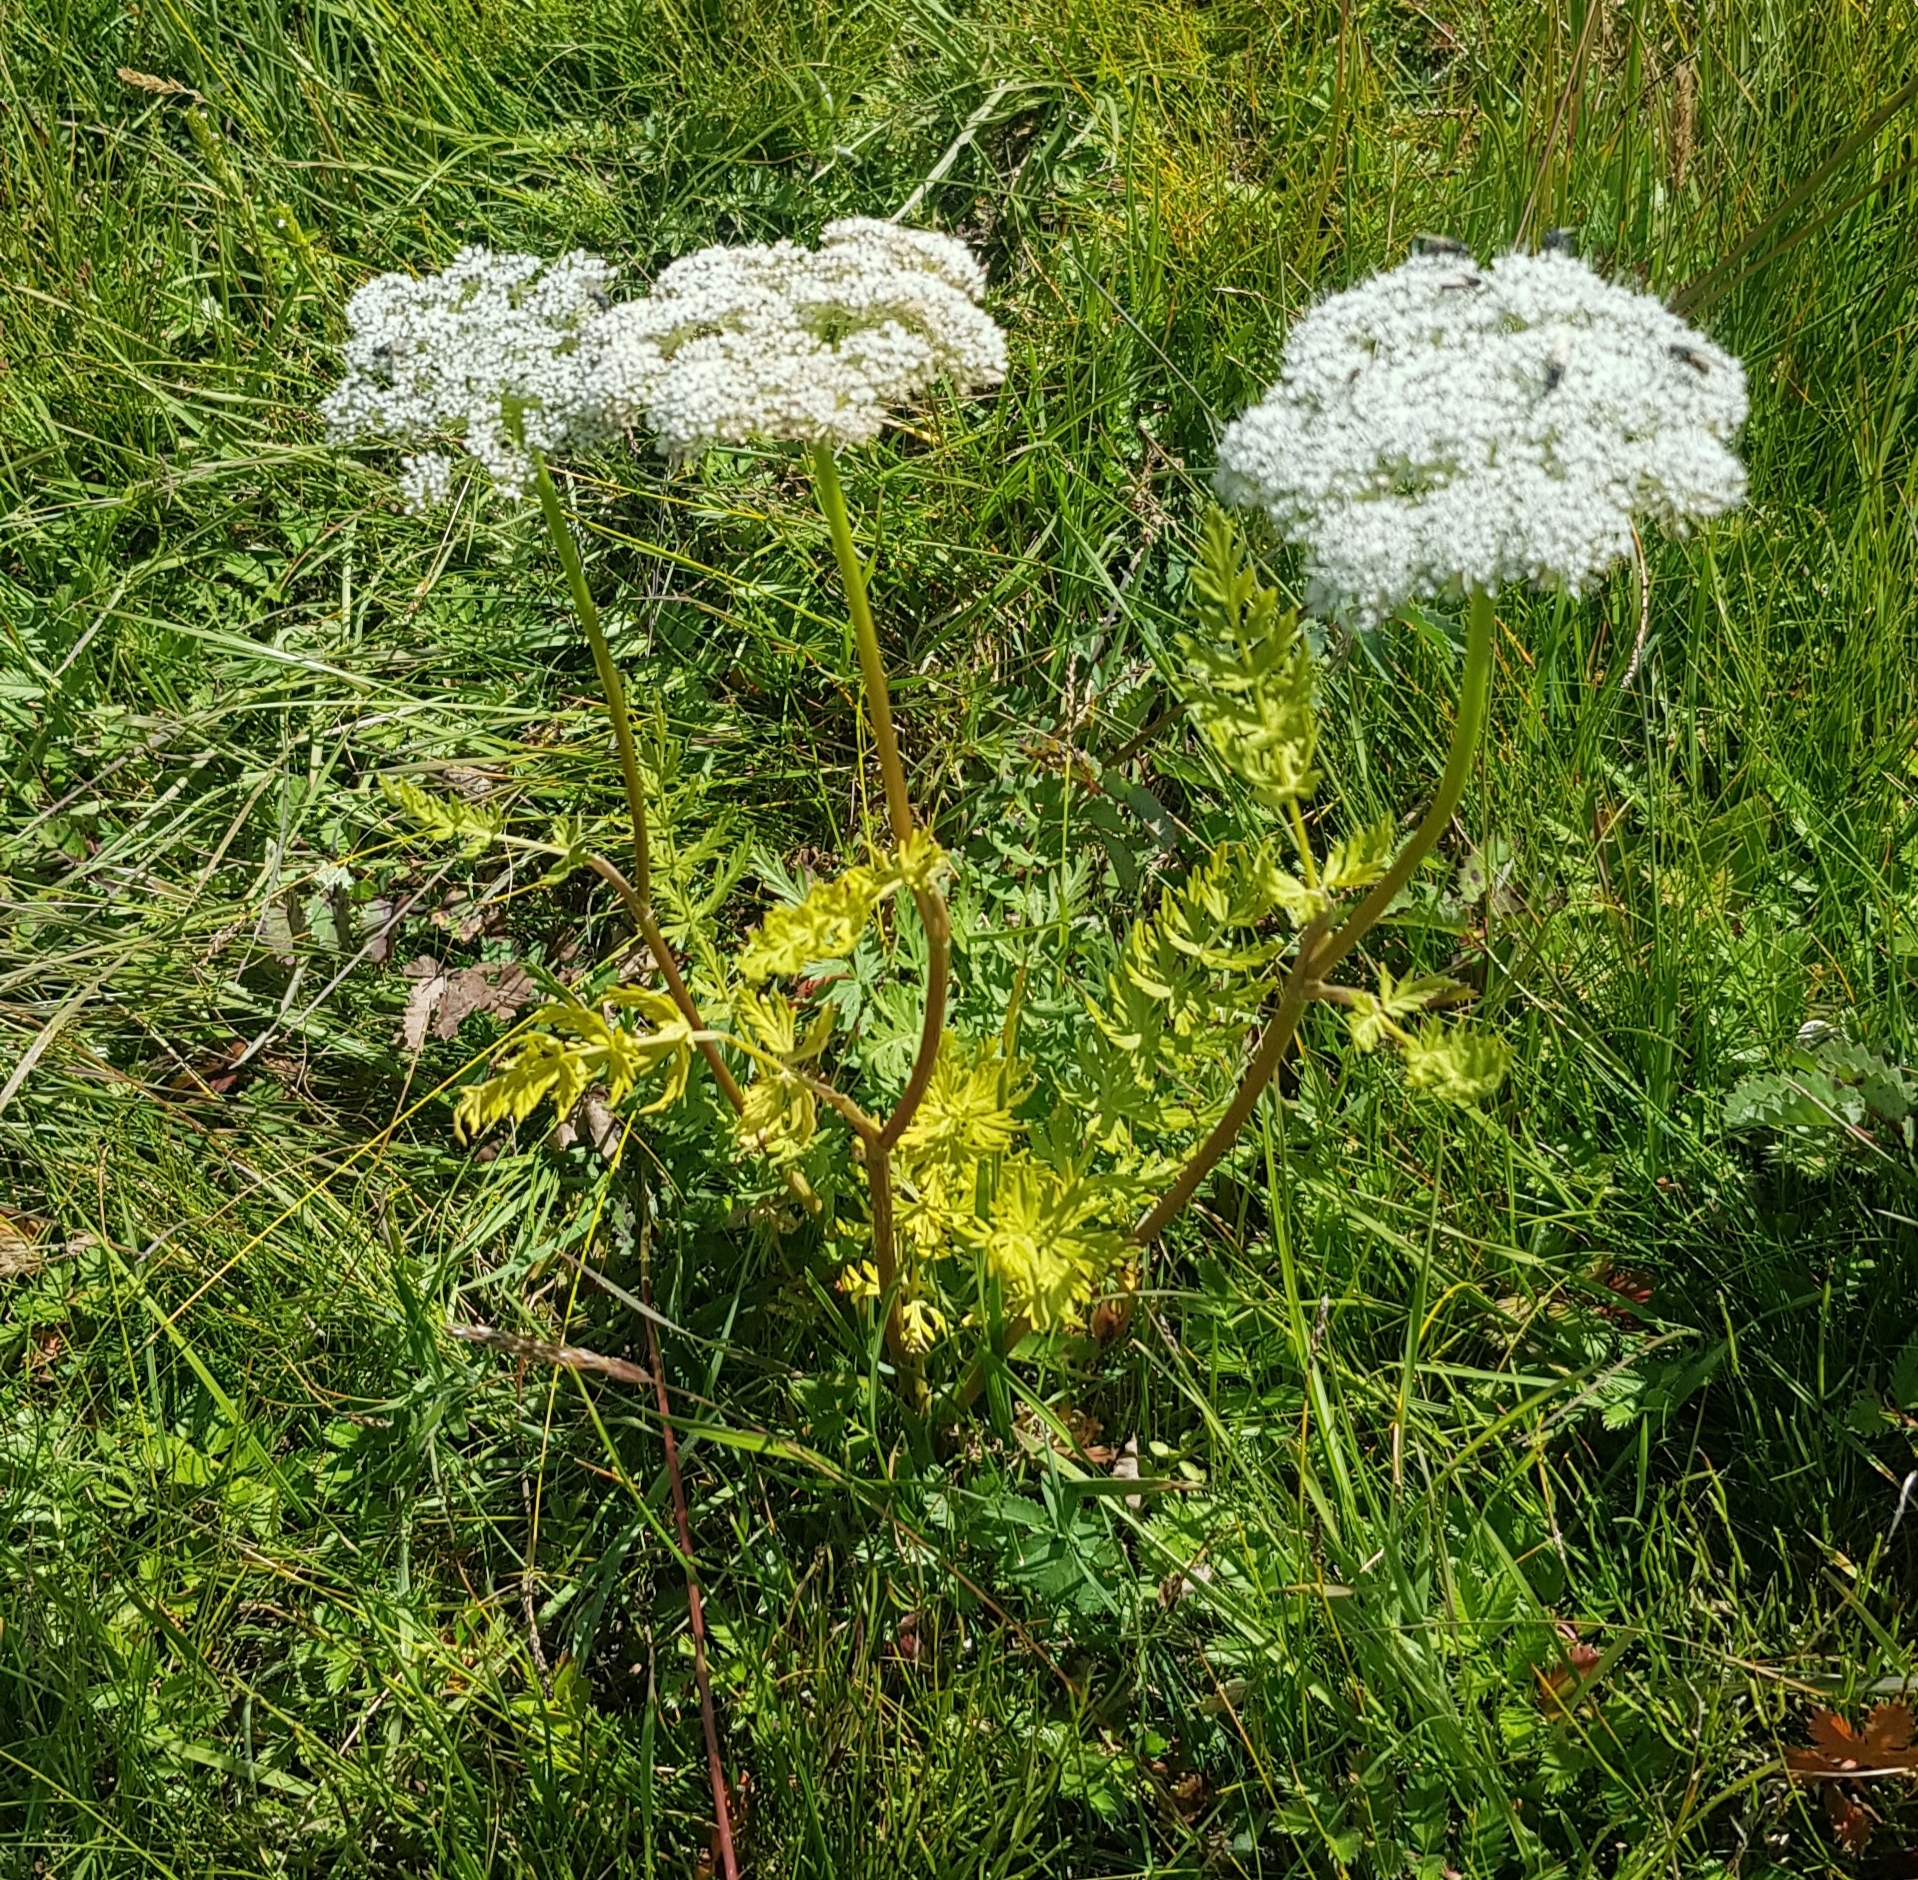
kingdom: Plantae
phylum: Tracheophyta
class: Magnoliopsida
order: Apiales
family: Apiaceae
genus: Seseli
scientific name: Seseli condensatum
